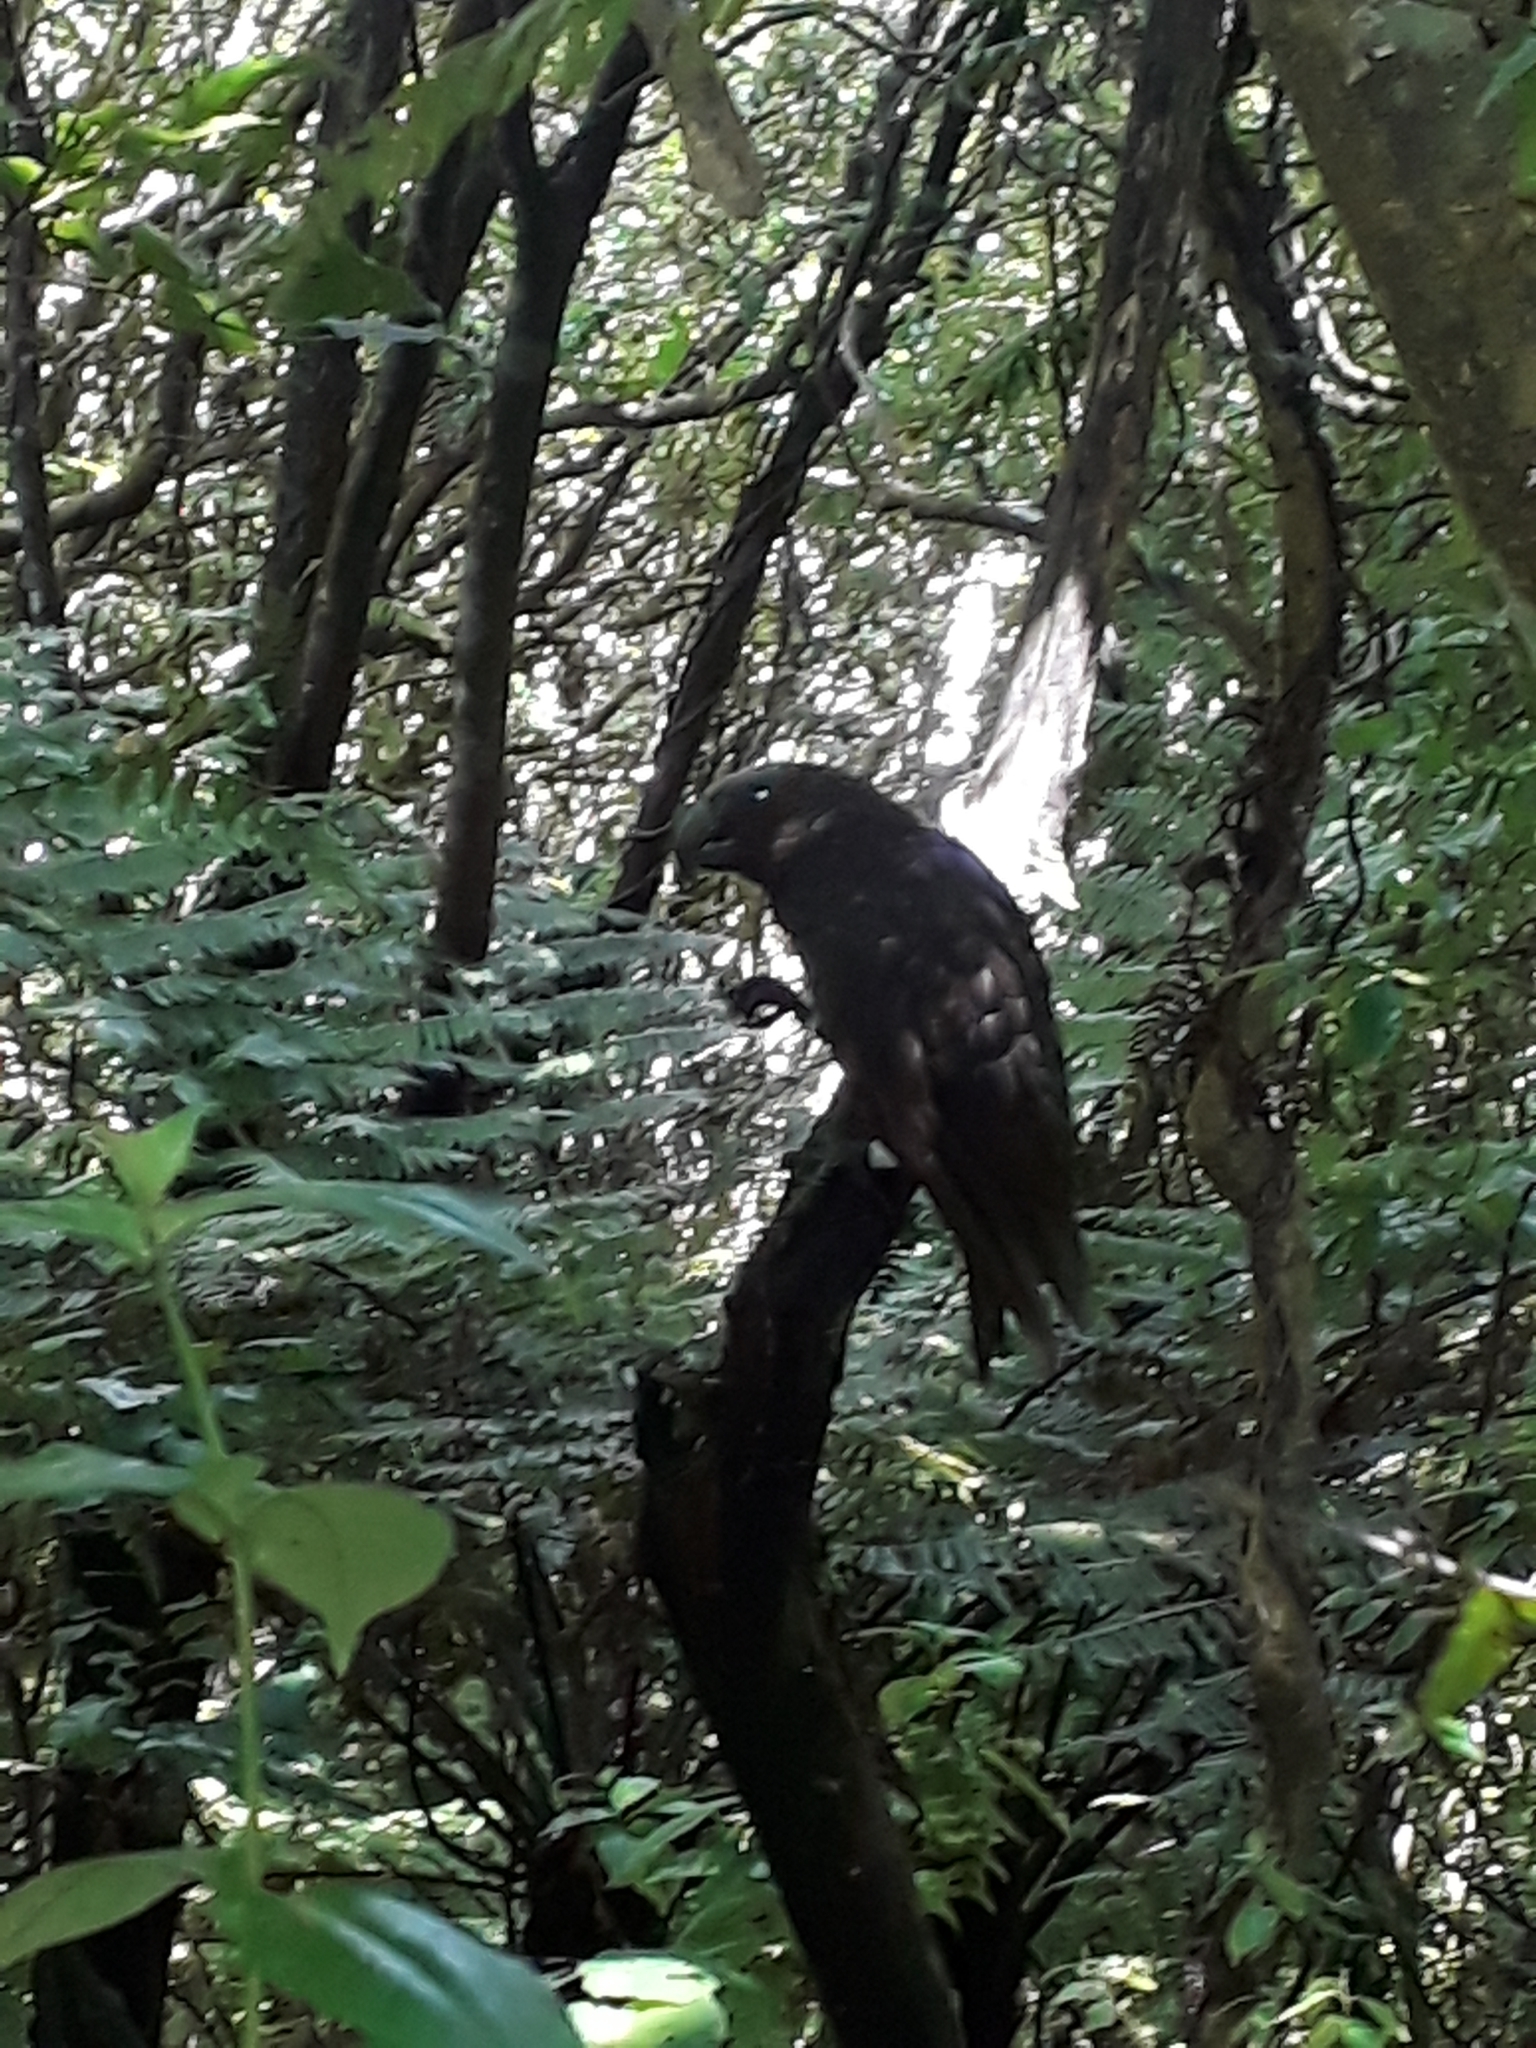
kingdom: Animalia
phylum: Chordata
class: Aves
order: Psittaciformes
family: Psittacidae
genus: Nestor
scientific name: Nestor meridionalis
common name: New zealand kaka
